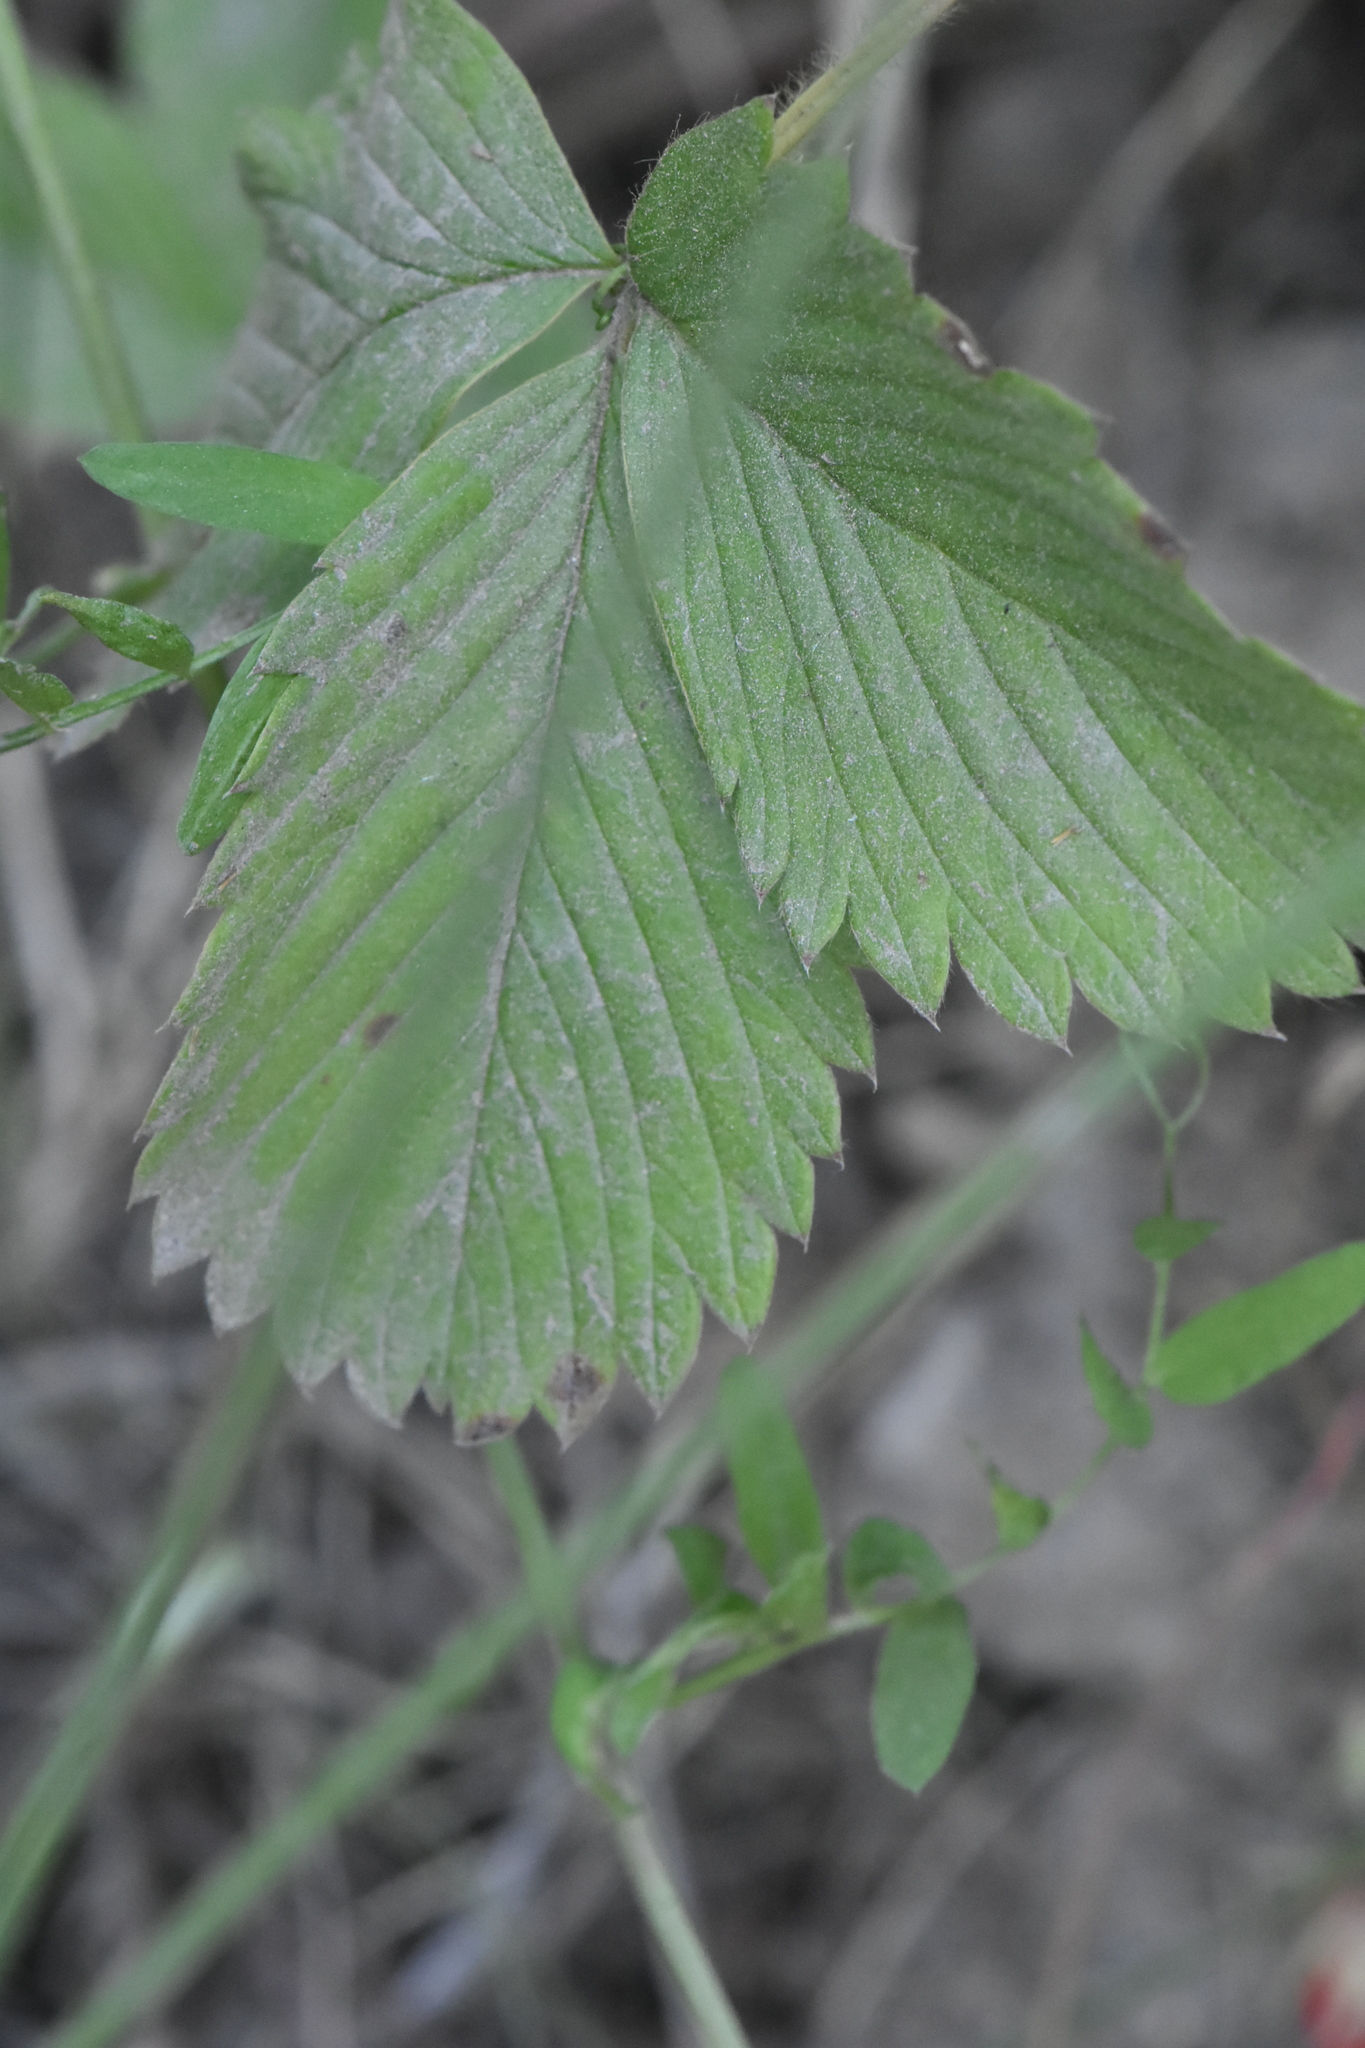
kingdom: Plantae
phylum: Tracheophyta
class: Magnoliopsida
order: Rosales
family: Rosaceae
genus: Fragaria
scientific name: Fragaria viridis
